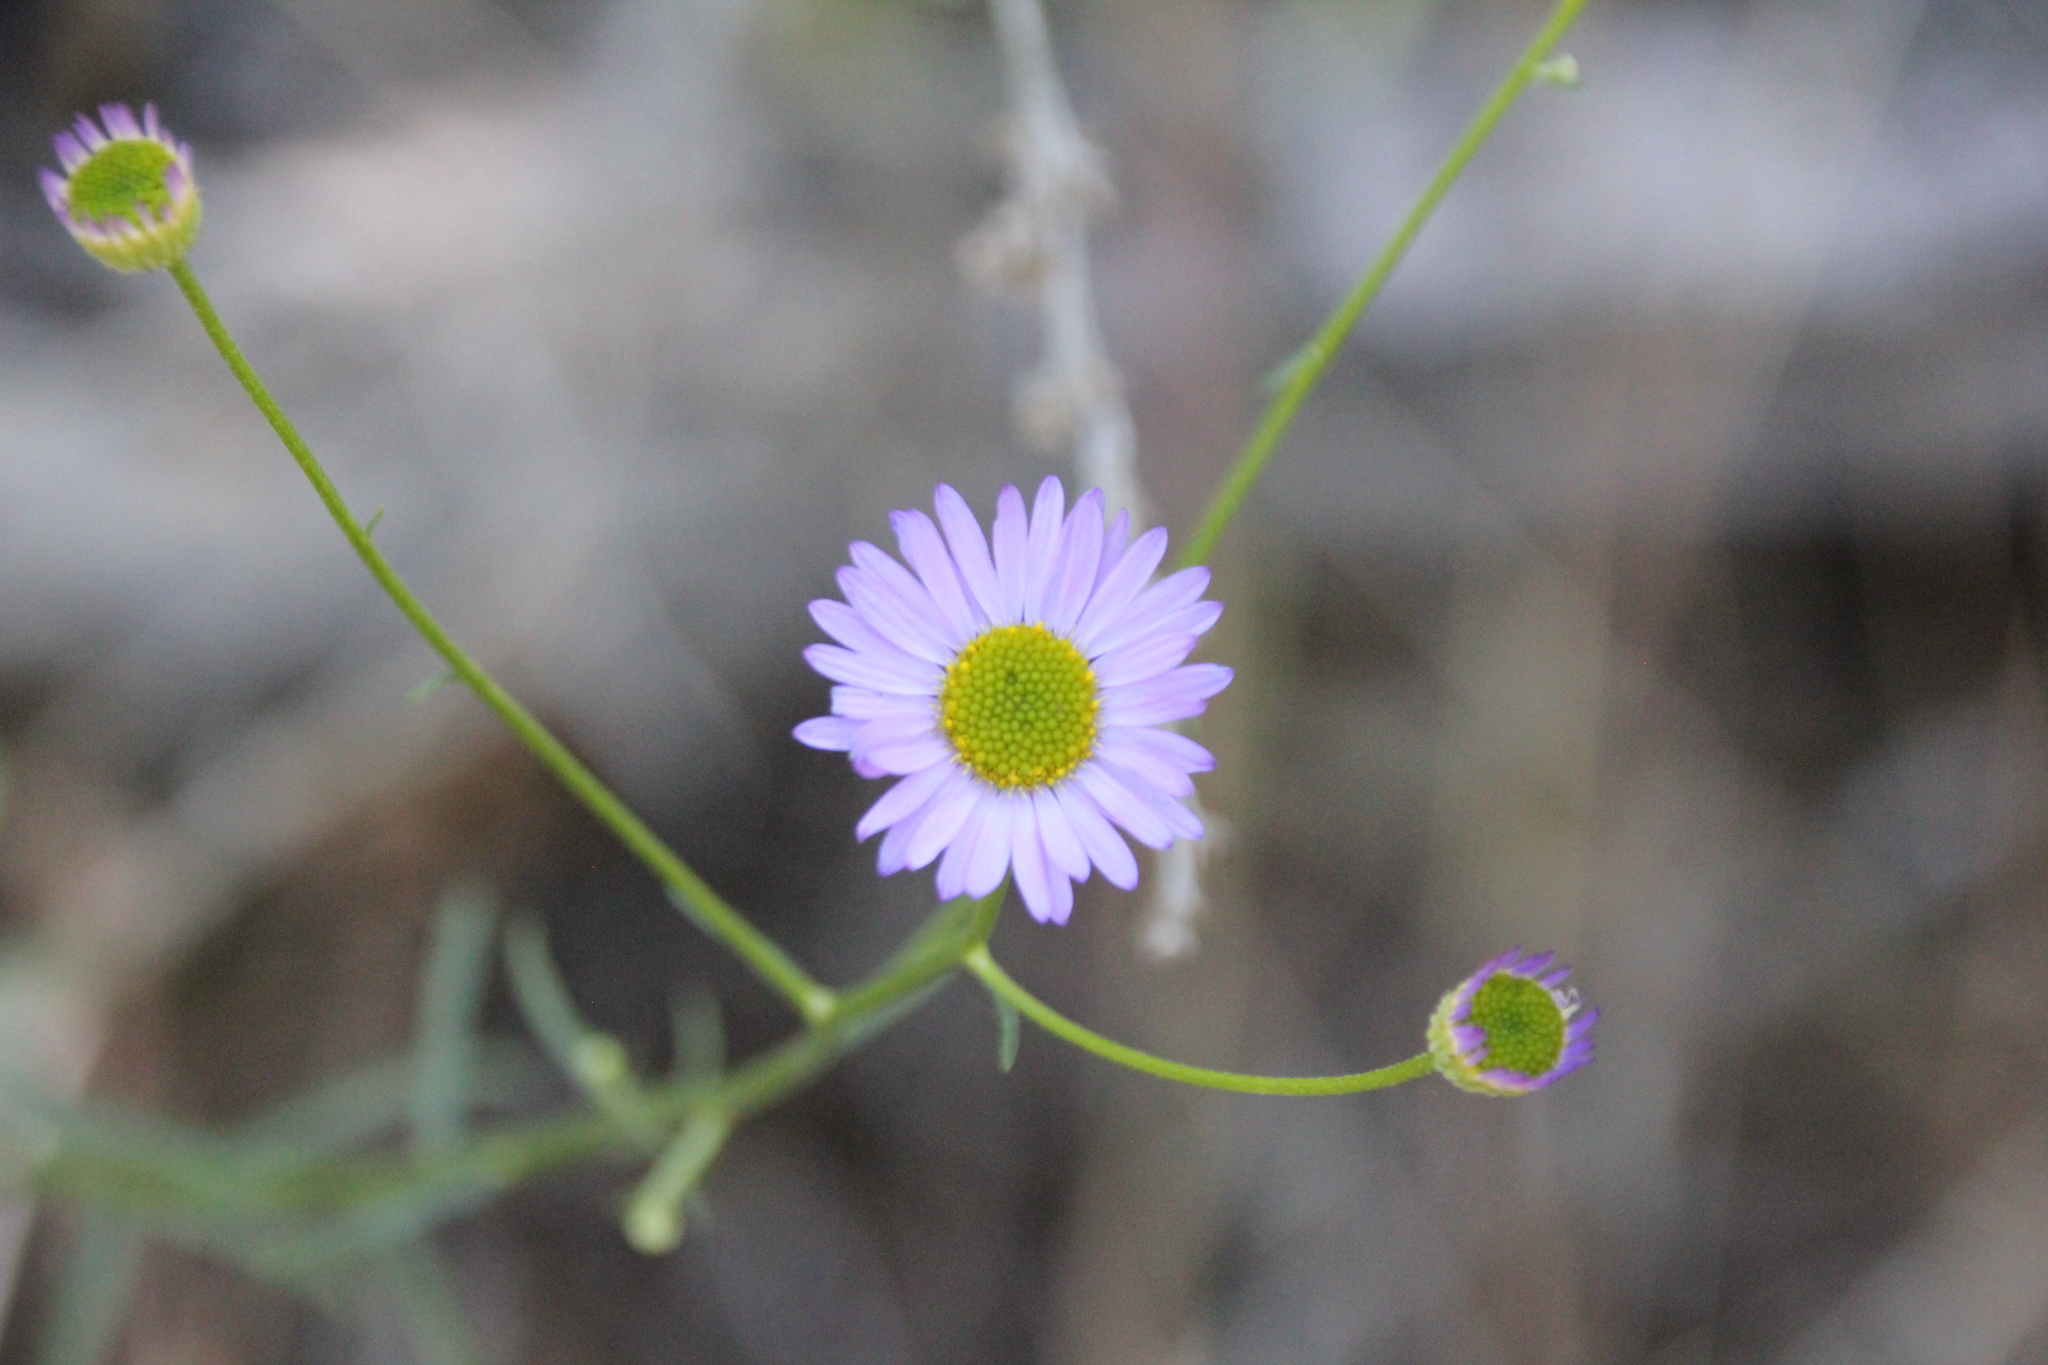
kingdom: Plantae
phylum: Tracheophyta
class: Magnoliopsida
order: Asterales
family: Asteraceae
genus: Erigeron
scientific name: Erigeron foliosus
